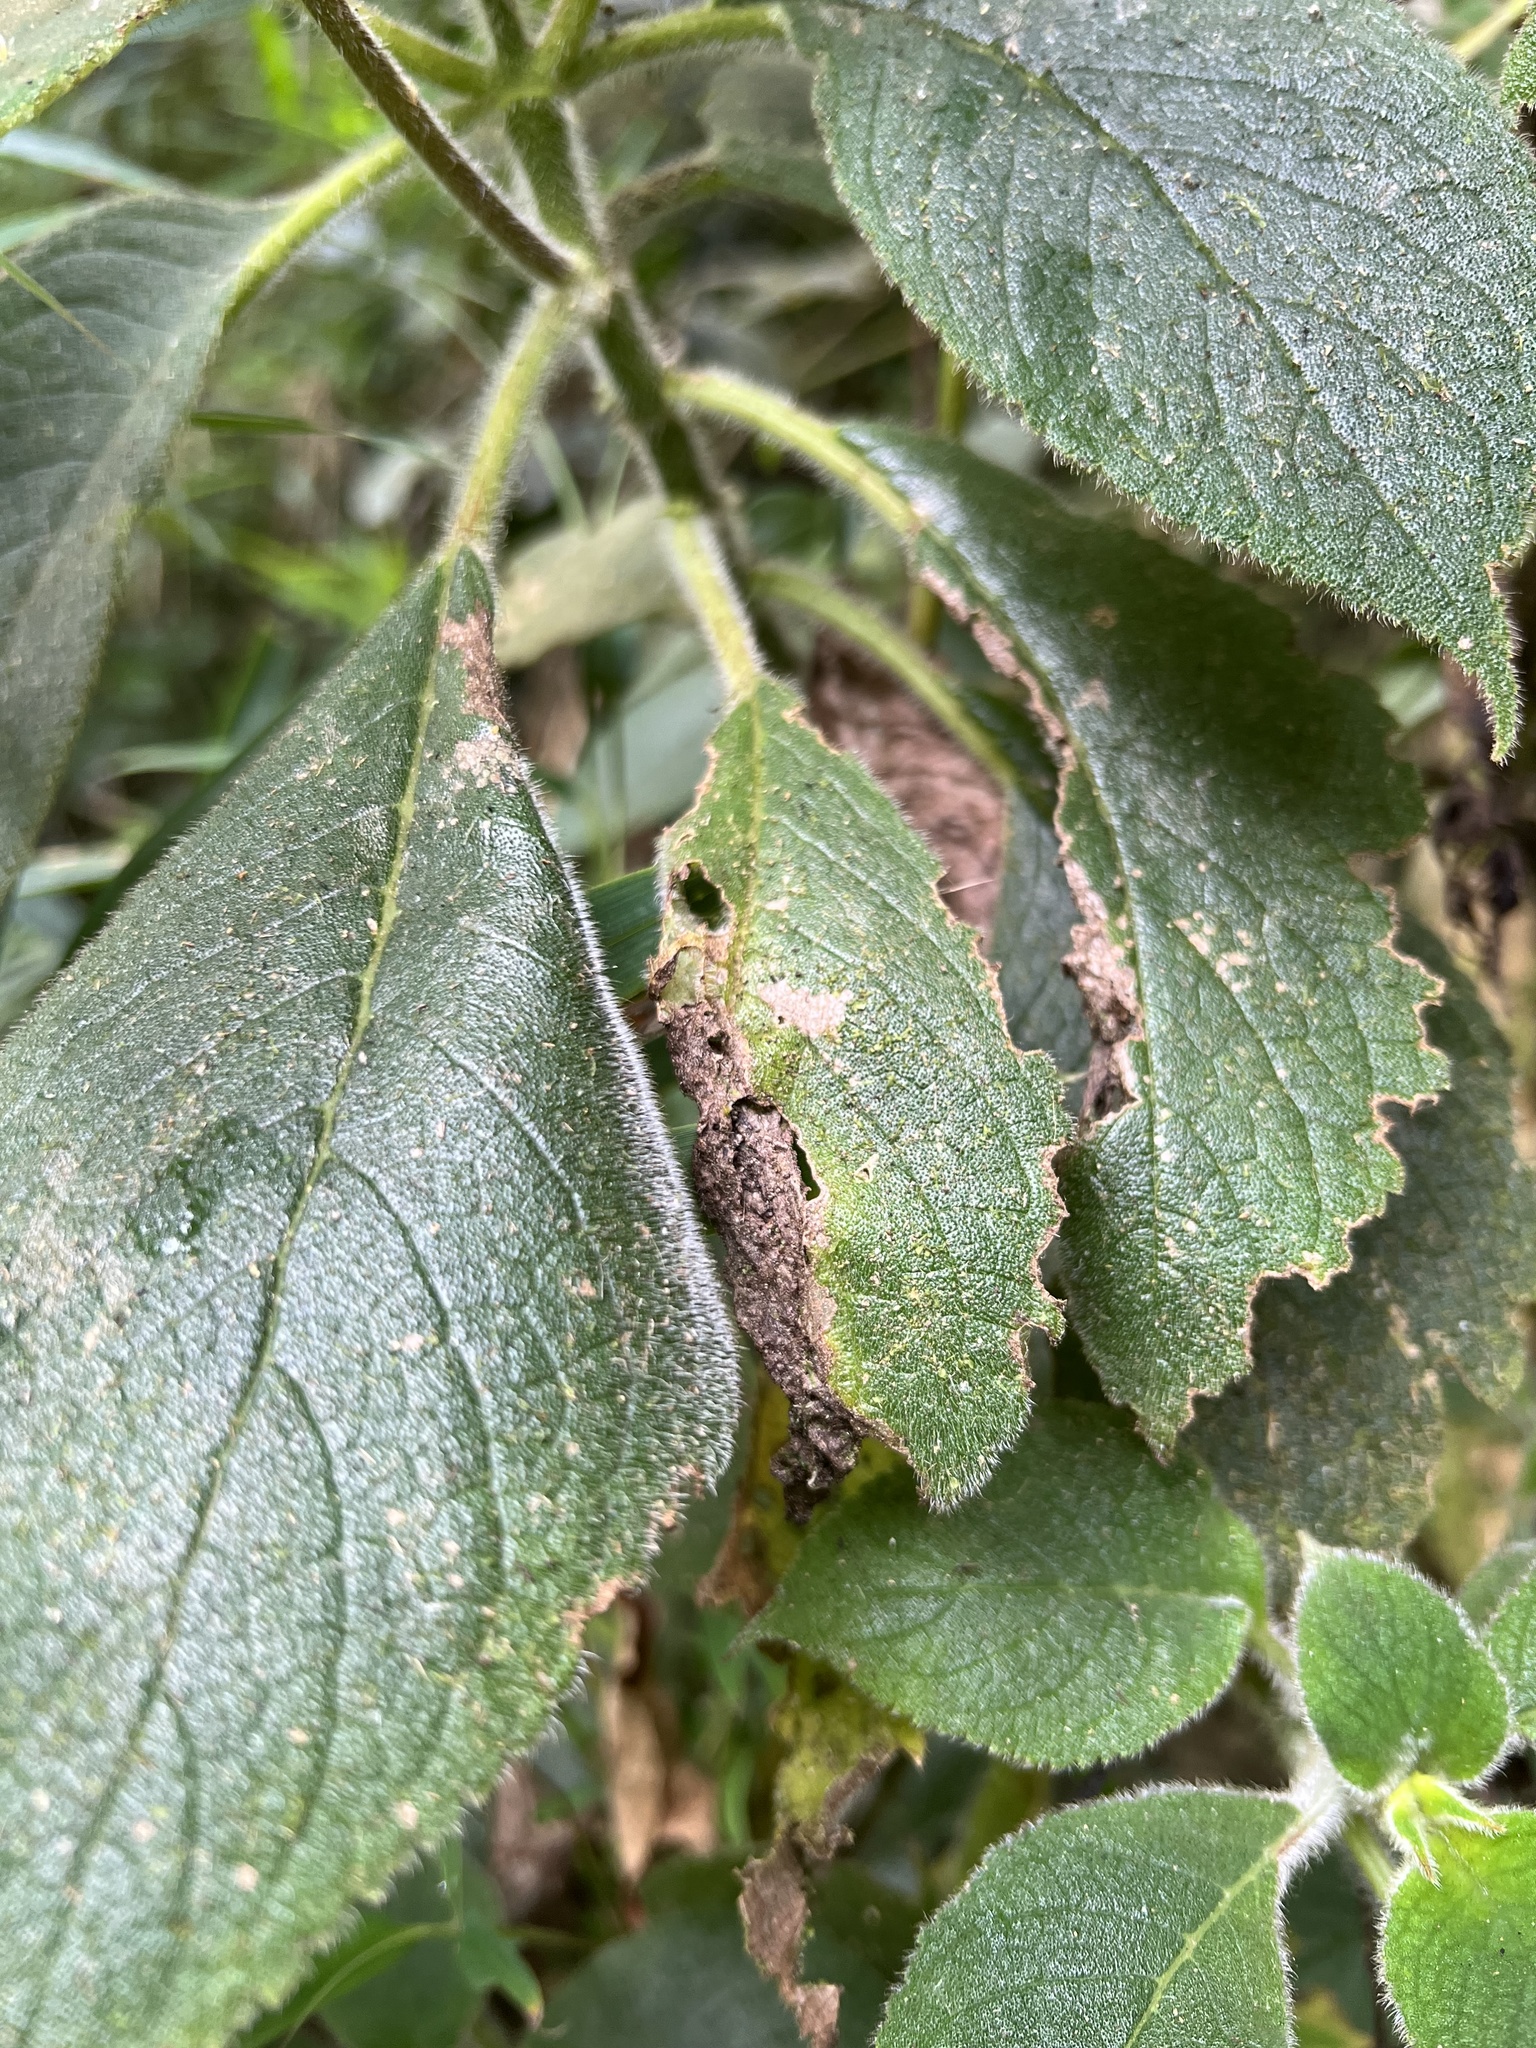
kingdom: Plantae
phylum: Tracheophyta
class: Magnoliopsida
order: Lamiales
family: Gesneriaceae
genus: Kohleria
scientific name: Kohleria tigridia
